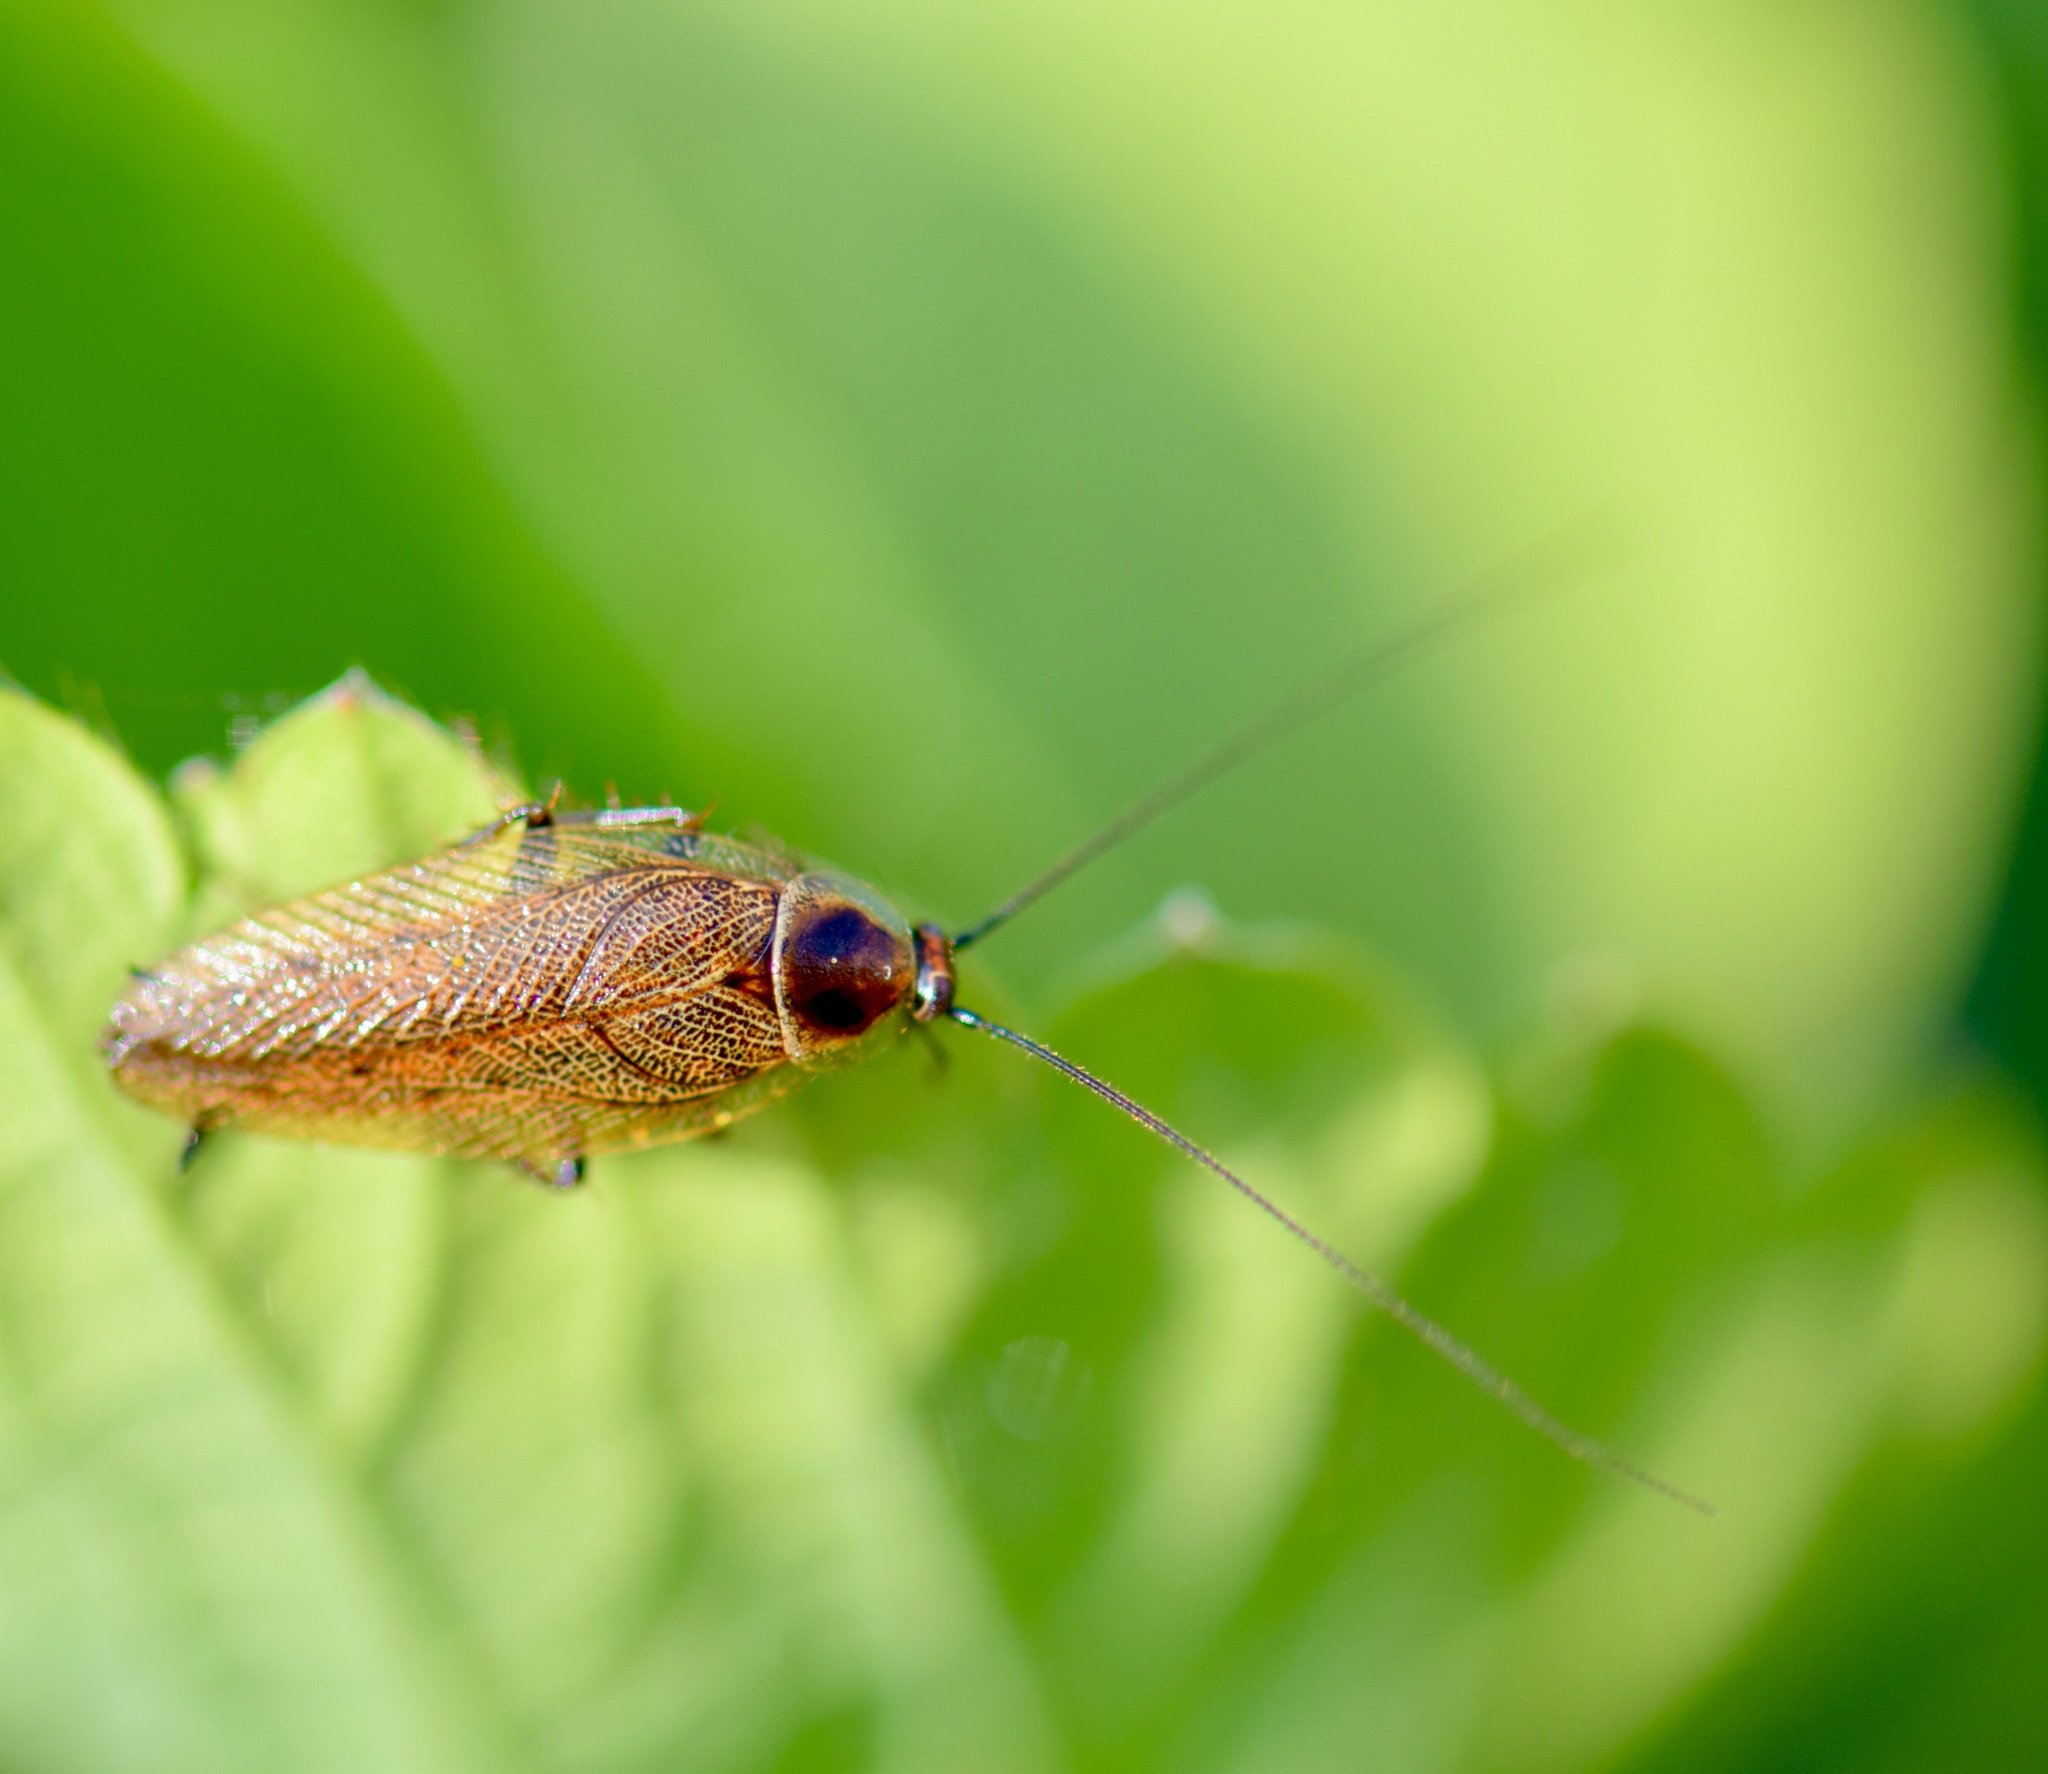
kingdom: Animalia
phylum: Arthropoda
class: Insecta
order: Blattodea
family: Ectobiidae
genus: Ectobius
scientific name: Ectobius lapponicus
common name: Dusky cockroach
